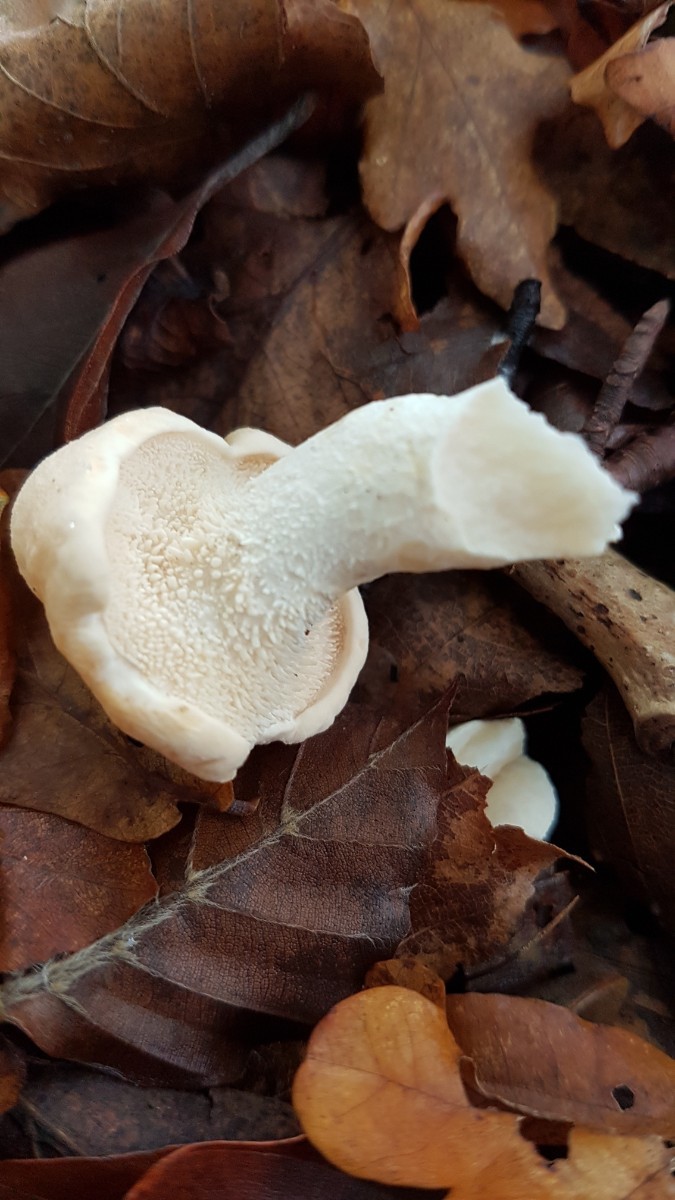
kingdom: Fungi
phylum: Basidiomycota
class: Agaricomycetes
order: Cantharellales
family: Hydnaceae
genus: Hydnum
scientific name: Hydnum repandum
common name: Wood hedgehog
